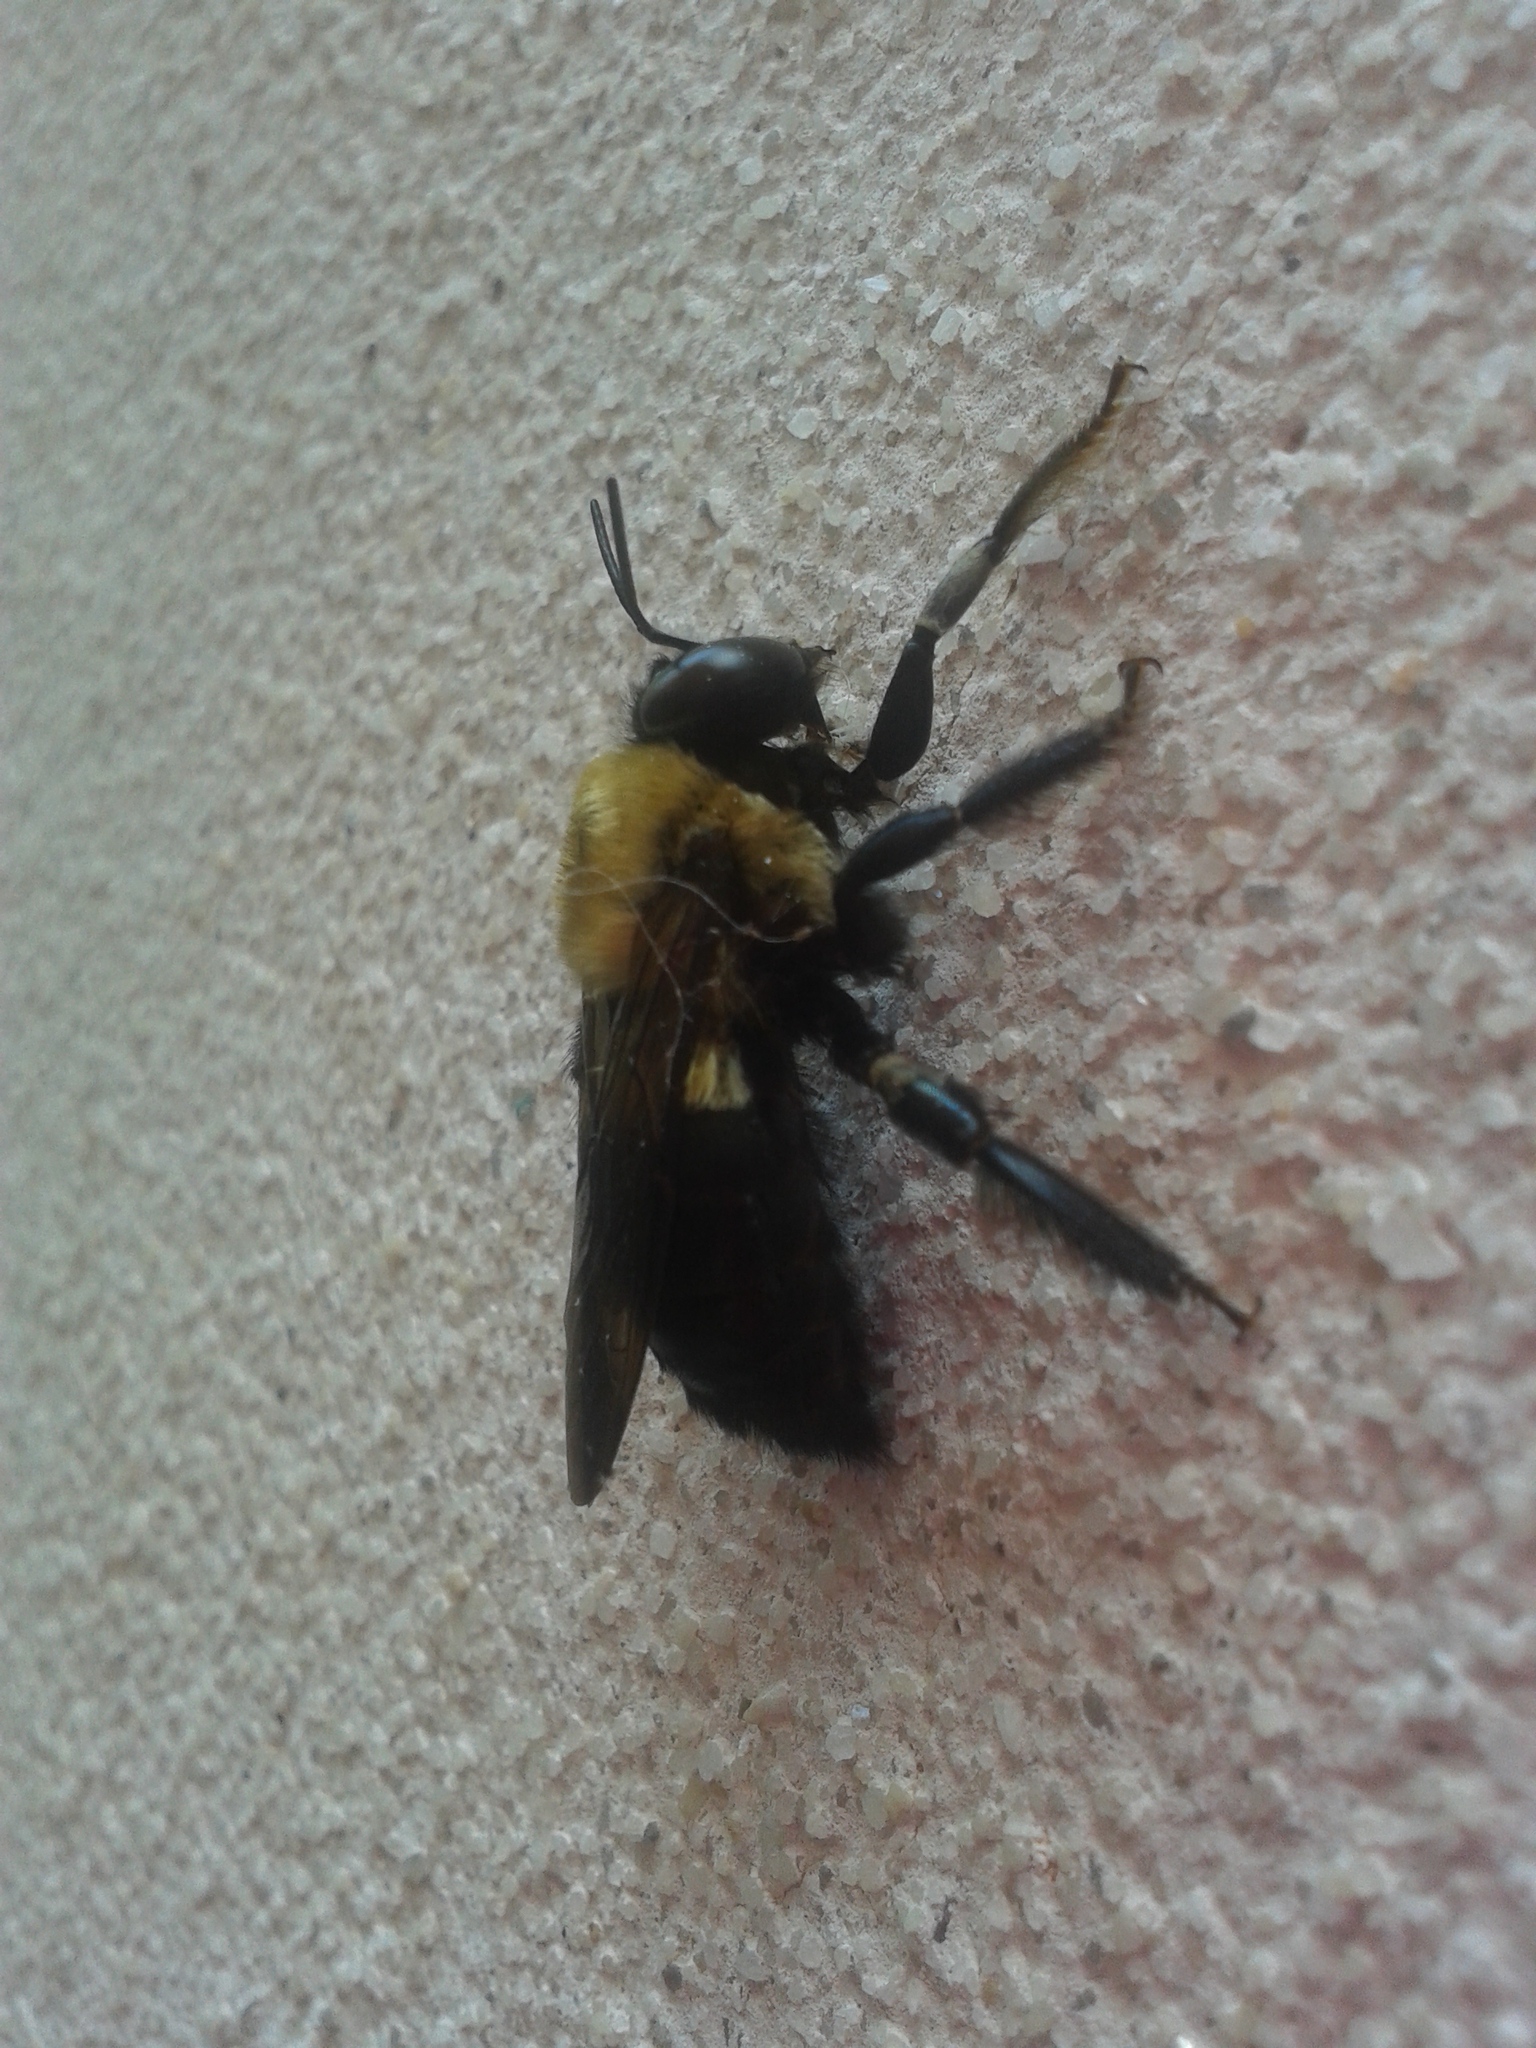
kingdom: Animalia
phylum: Arthropoda
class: Insecta
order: Hymenoptera
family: Apidae
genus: Xylocopa
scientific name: Xylocopa virginica
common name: Carpenter bee
